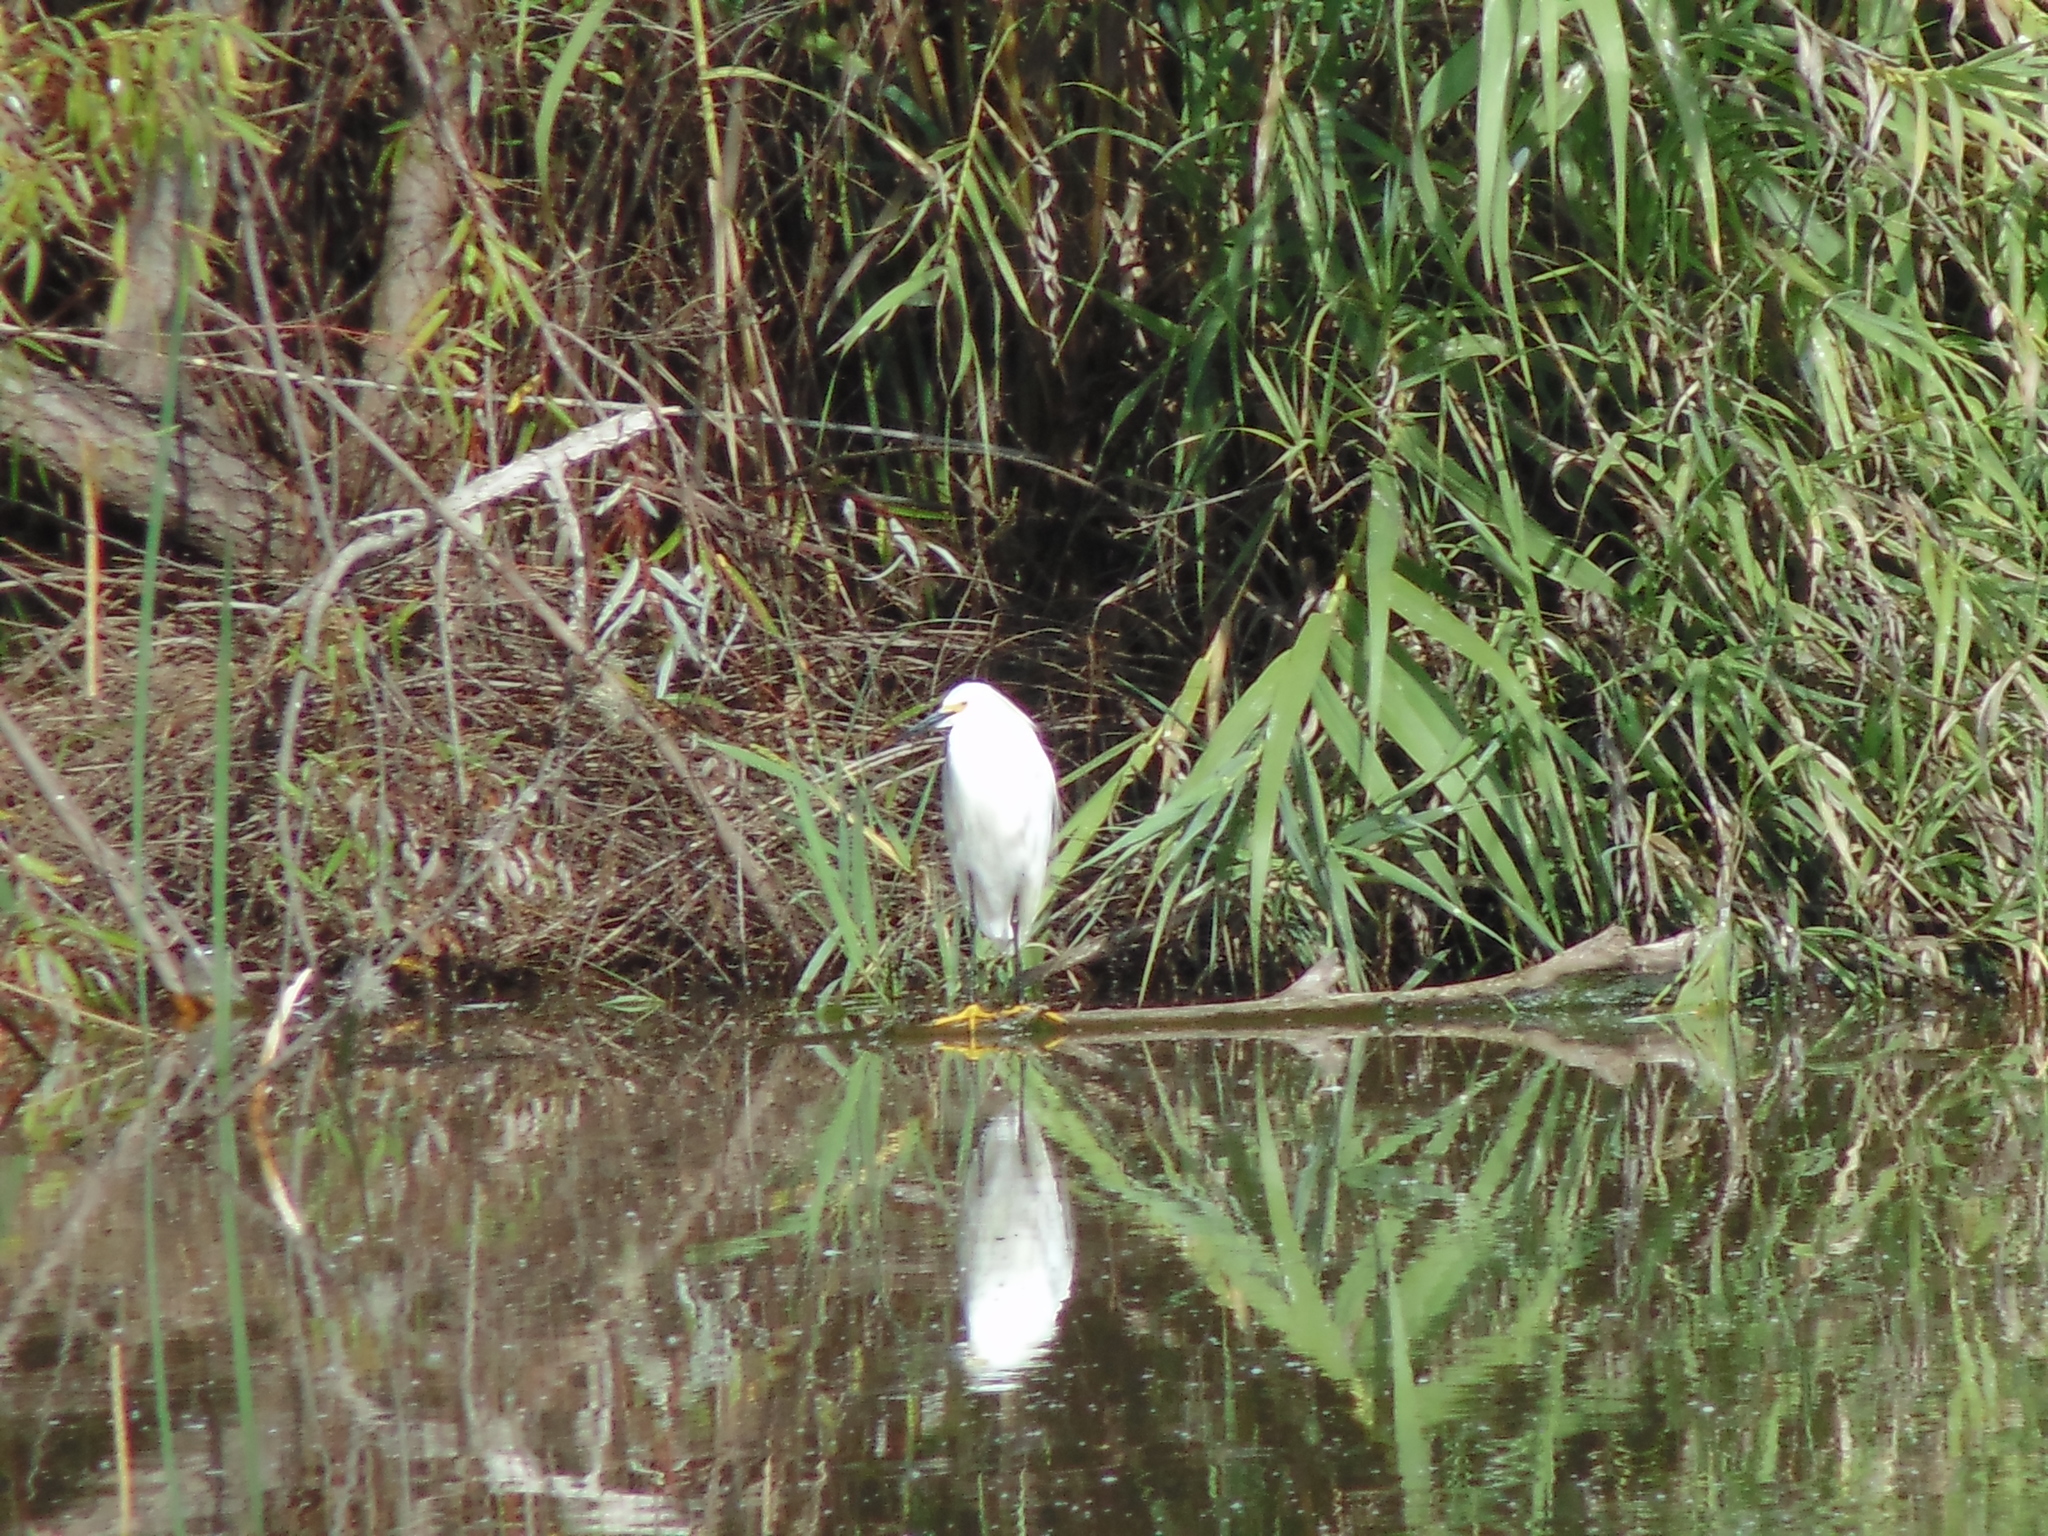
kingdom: Animalia
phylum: Chordata
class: Aves
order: Pelecaniformes
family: Ardeidae
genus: Egretta
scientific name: Egretta thula
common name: Snowy egret
